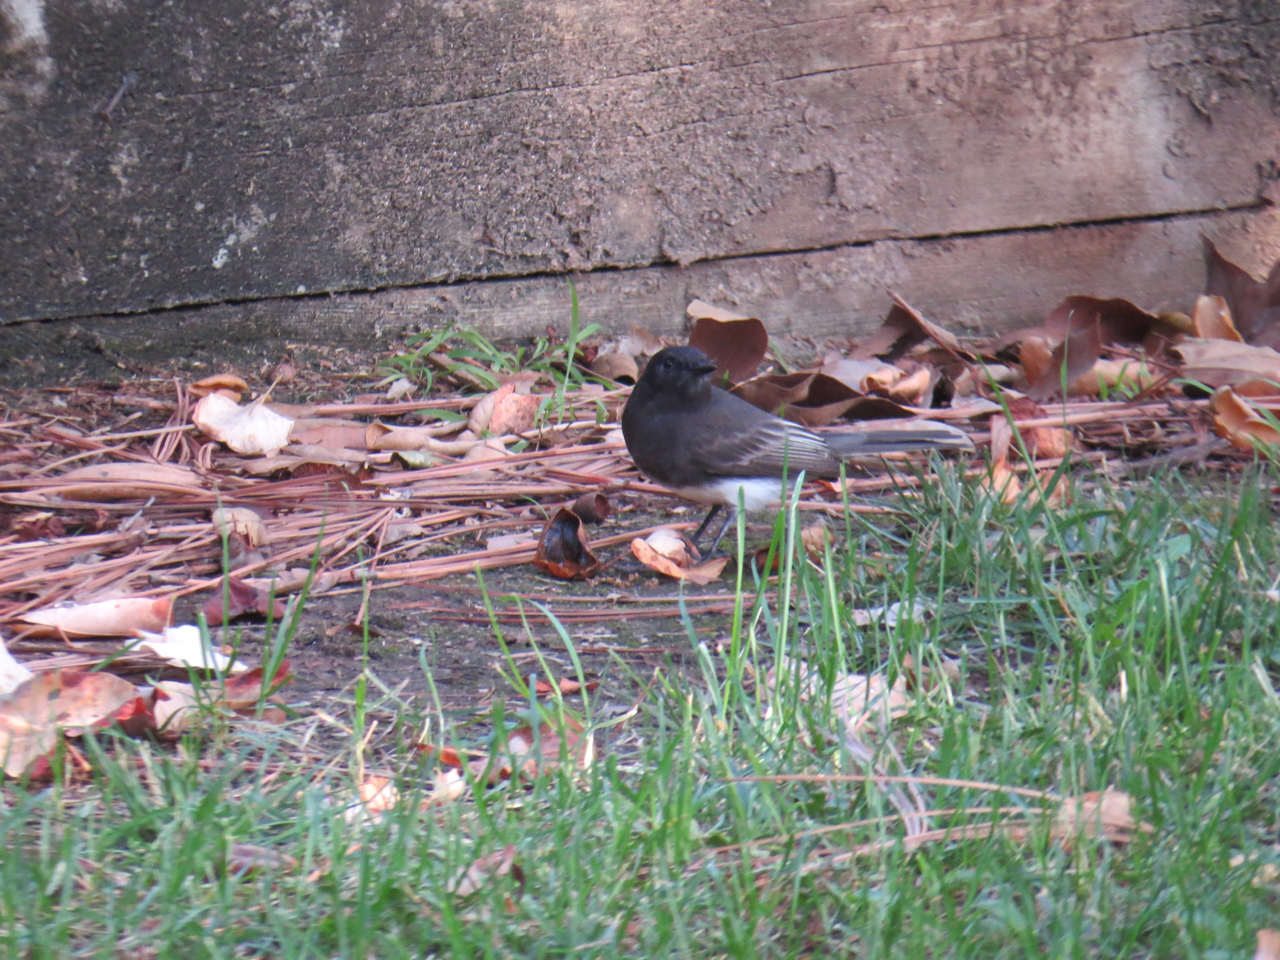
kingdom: Animalia
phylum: Chordata
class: Aves
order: Passeriformes
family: Tyrannidae
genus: Sayornis
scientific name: Sayornis nigricans
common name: Black phoebe
